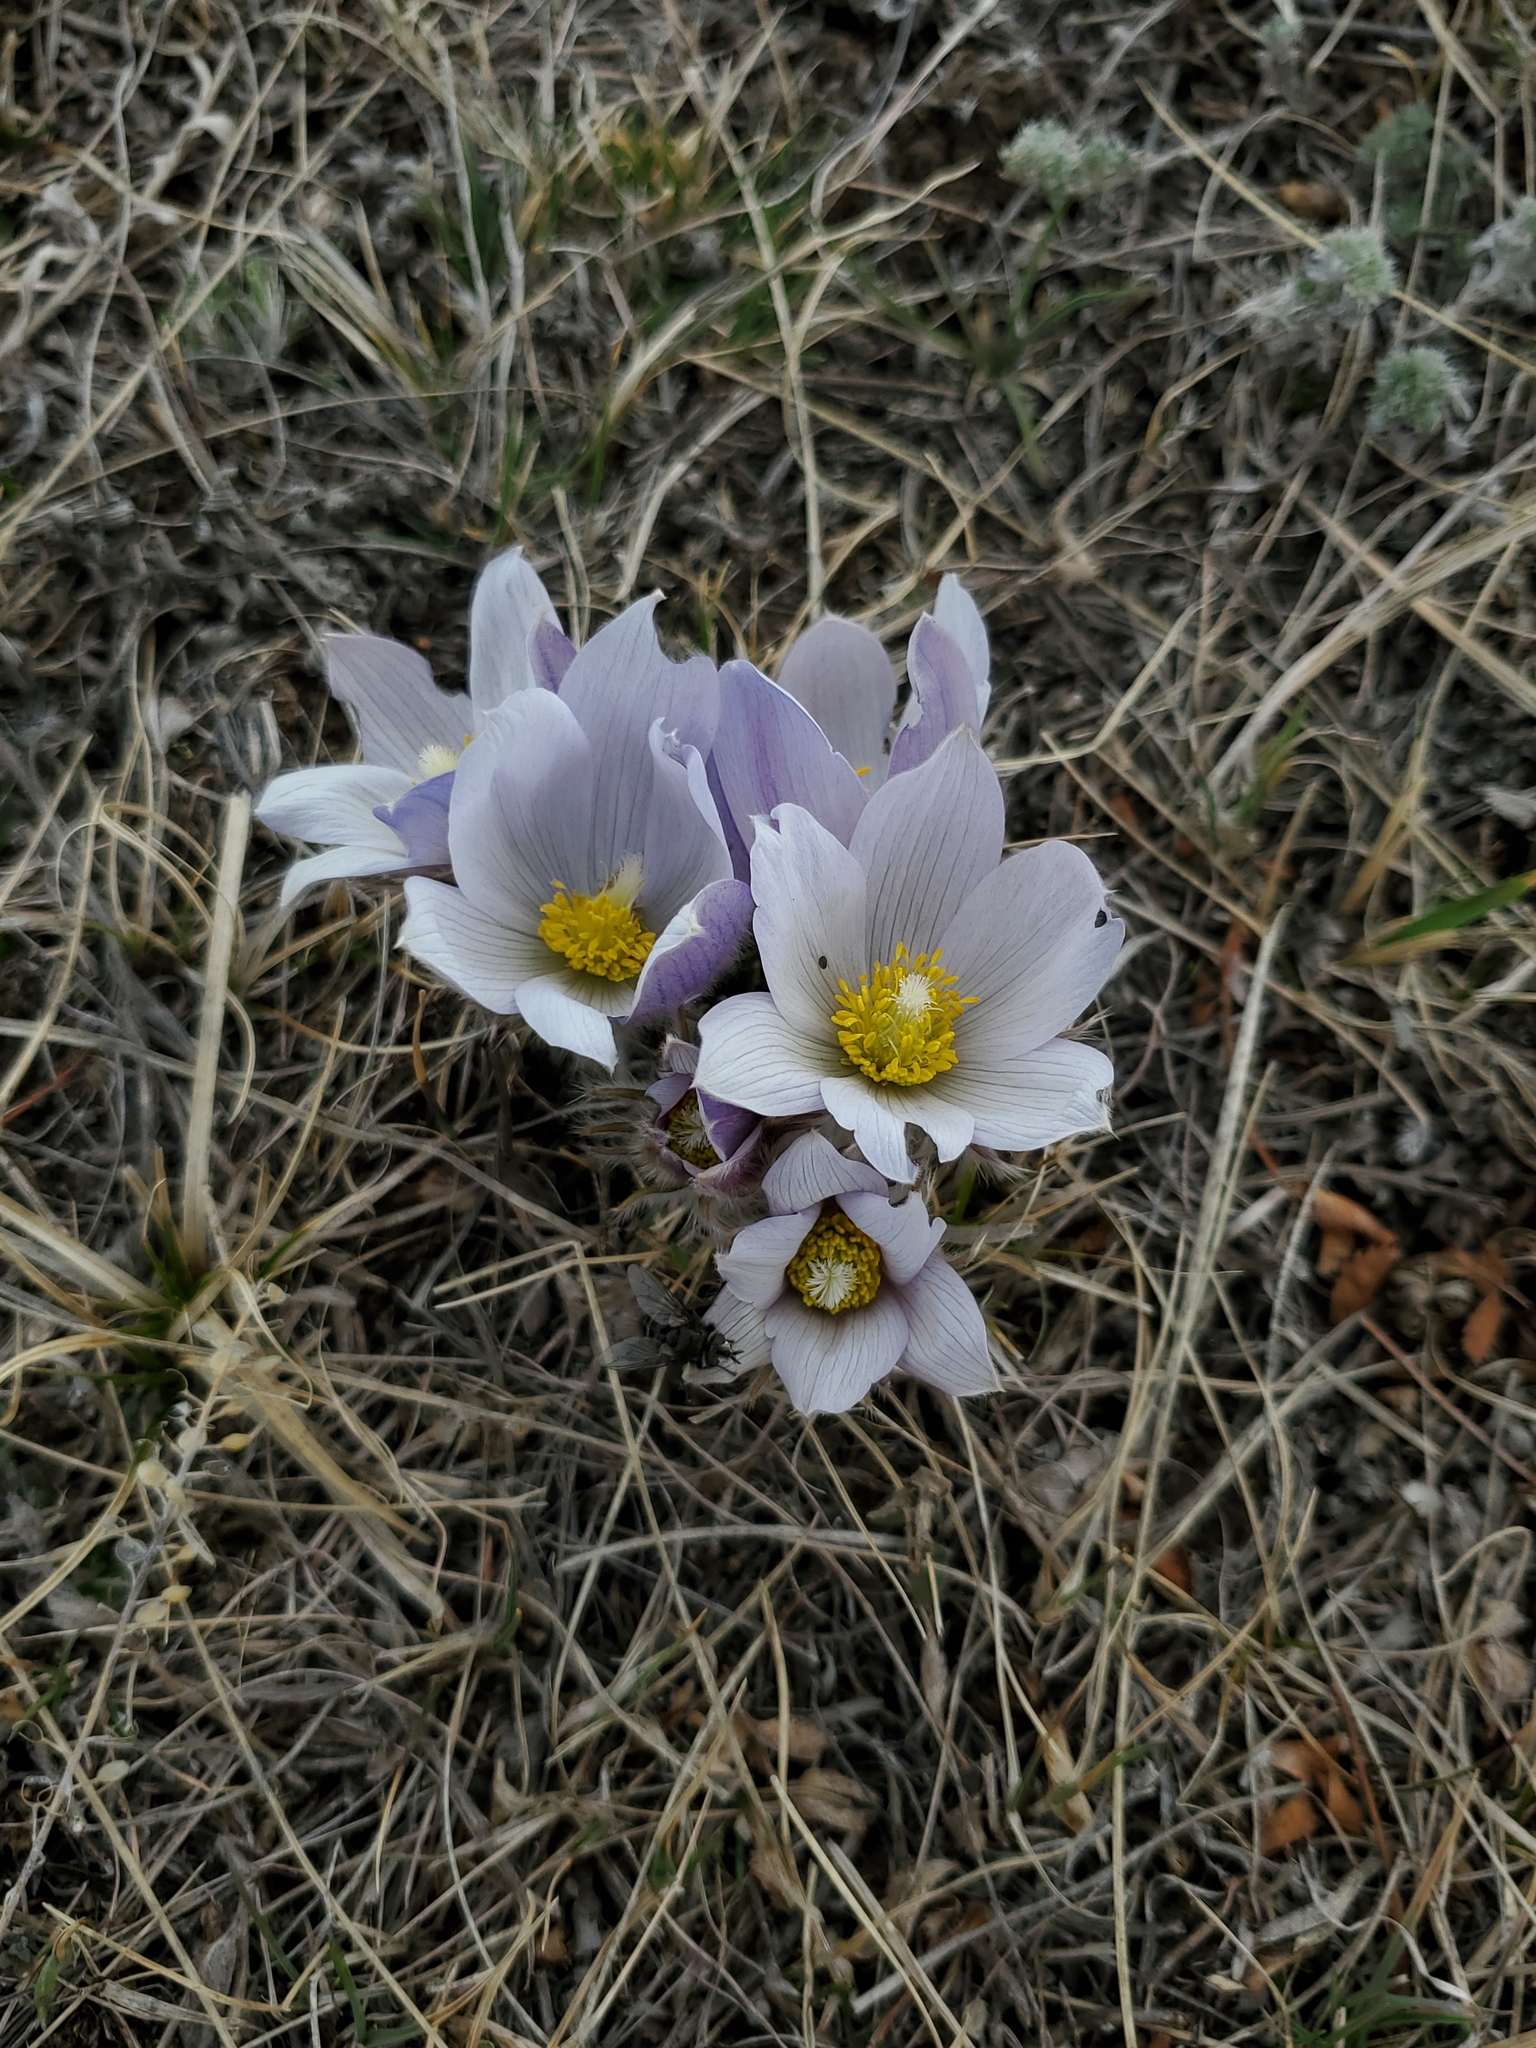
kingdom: Plantae
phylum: Tracheophyta
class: Magnoliopsida
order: Ranunculales
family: Ranunculaceae
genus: Pulsatilla
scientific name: Pulsatilla nuttalliana
